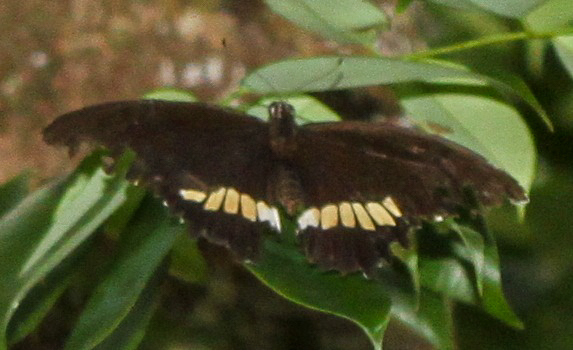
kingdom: Animalia
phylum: Arthropoda
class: Insecta
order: Lepidoptera
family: Papilionidae
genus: Papilio
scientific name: Papilio polytes
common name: Common mormon
